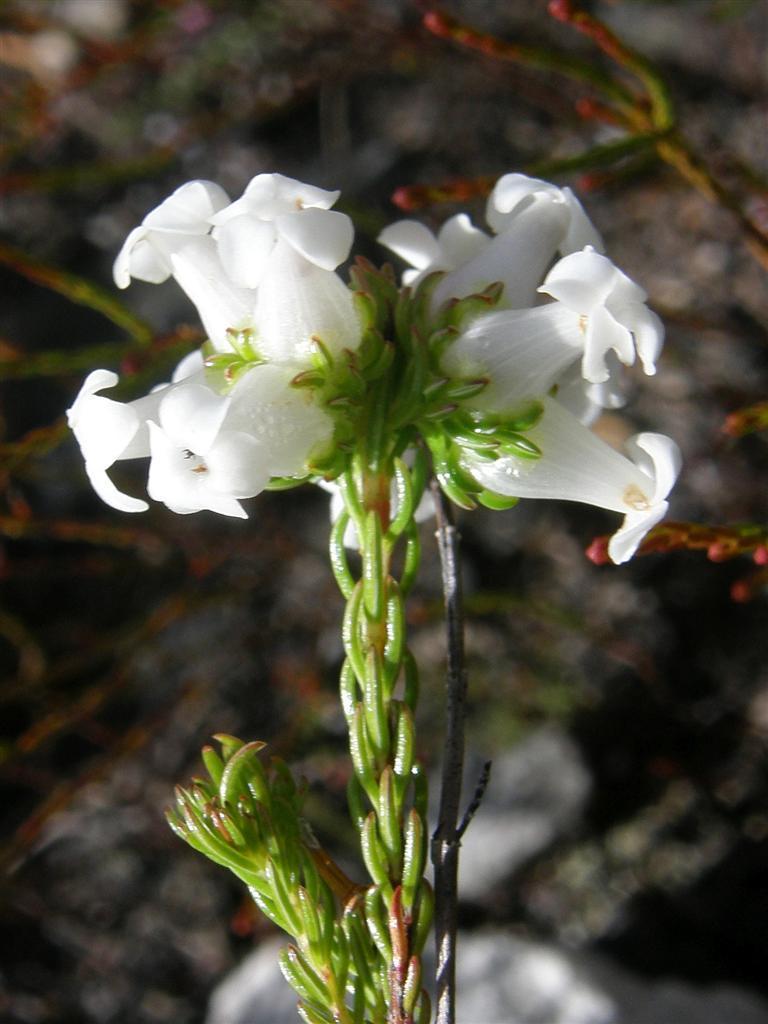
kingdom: Plantae
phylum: Tracheophyta
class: Magnoliopsida
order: Ericales
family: Ericaceae
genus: Erica
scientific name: Erica denticulata
